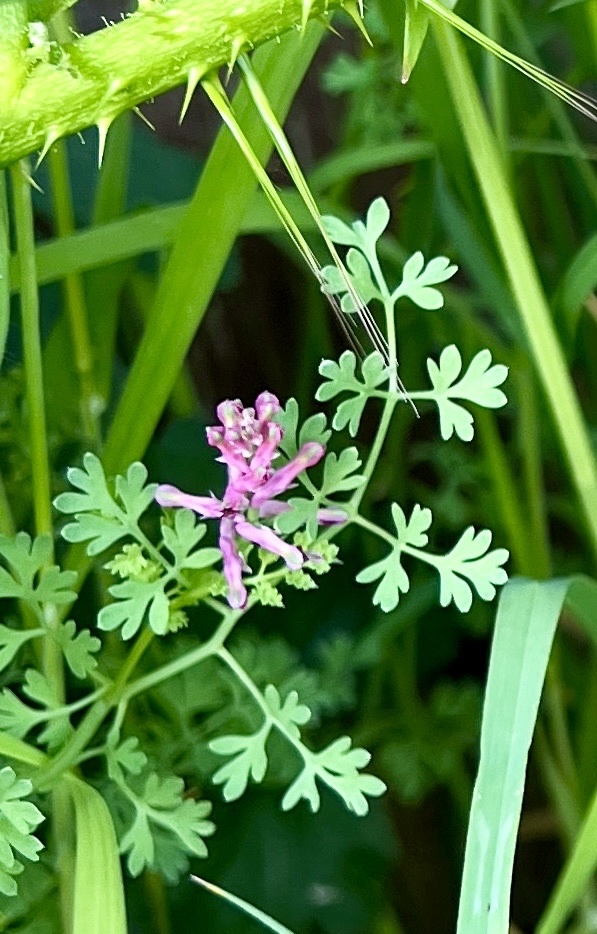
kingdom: Plantae
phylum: Tracheophyta
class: Magnoliopsida
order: Ranunculales
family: Papaveraceae
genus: Fumaria
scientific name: Fumaria officinalis
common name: Common fumitory
